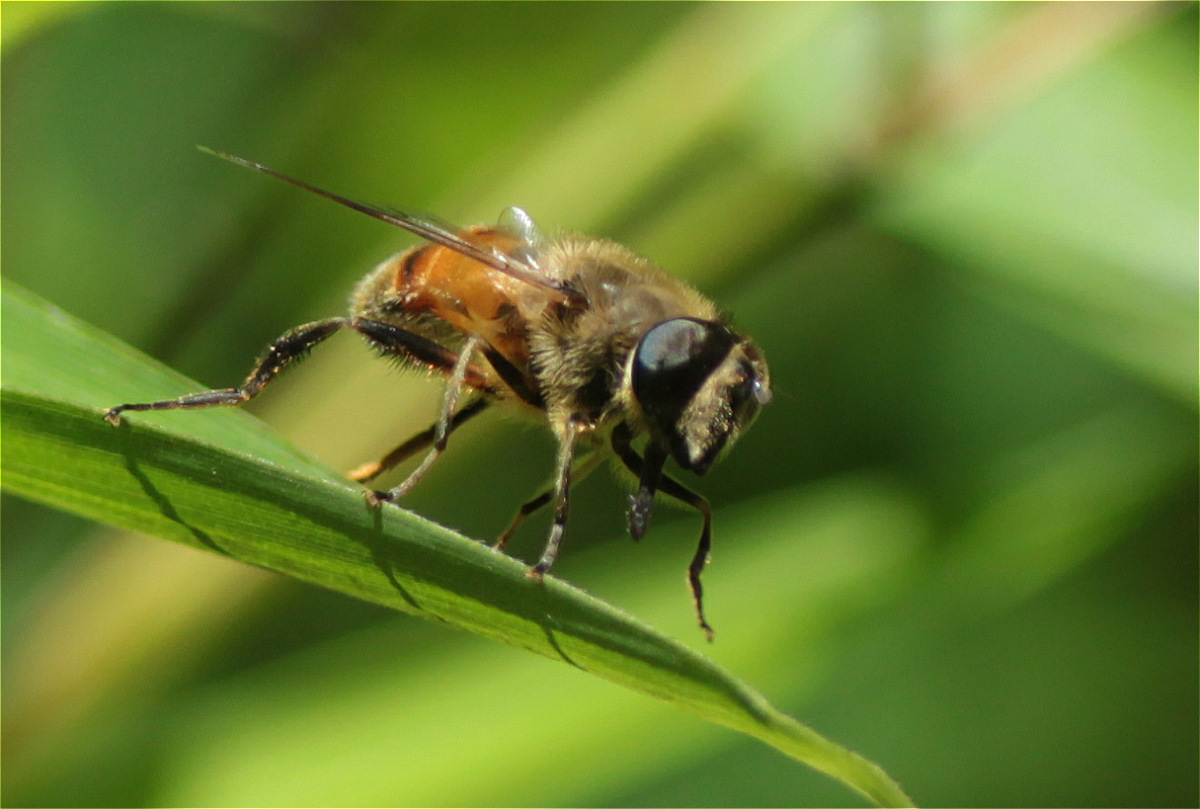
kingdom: Animalia
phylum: Arthropoda
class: Insecta
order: Diptera
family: Syrphidae
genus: Eristalis
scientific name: Eristalis tenax
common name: Drone fly
